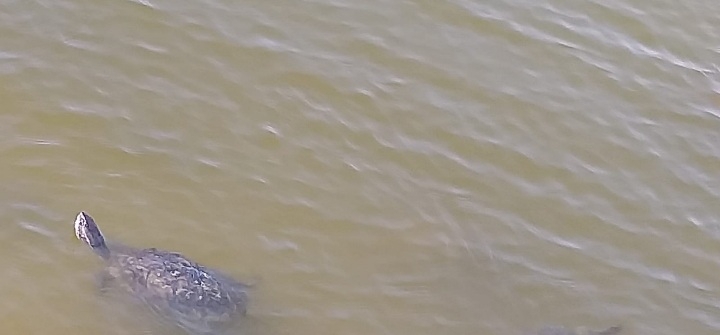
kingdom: Animalia
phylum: Chordata
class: Testudines
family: Geoemydidae
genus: Mauremys
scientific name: Mauremys rivulata
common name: Western caspian turtle
